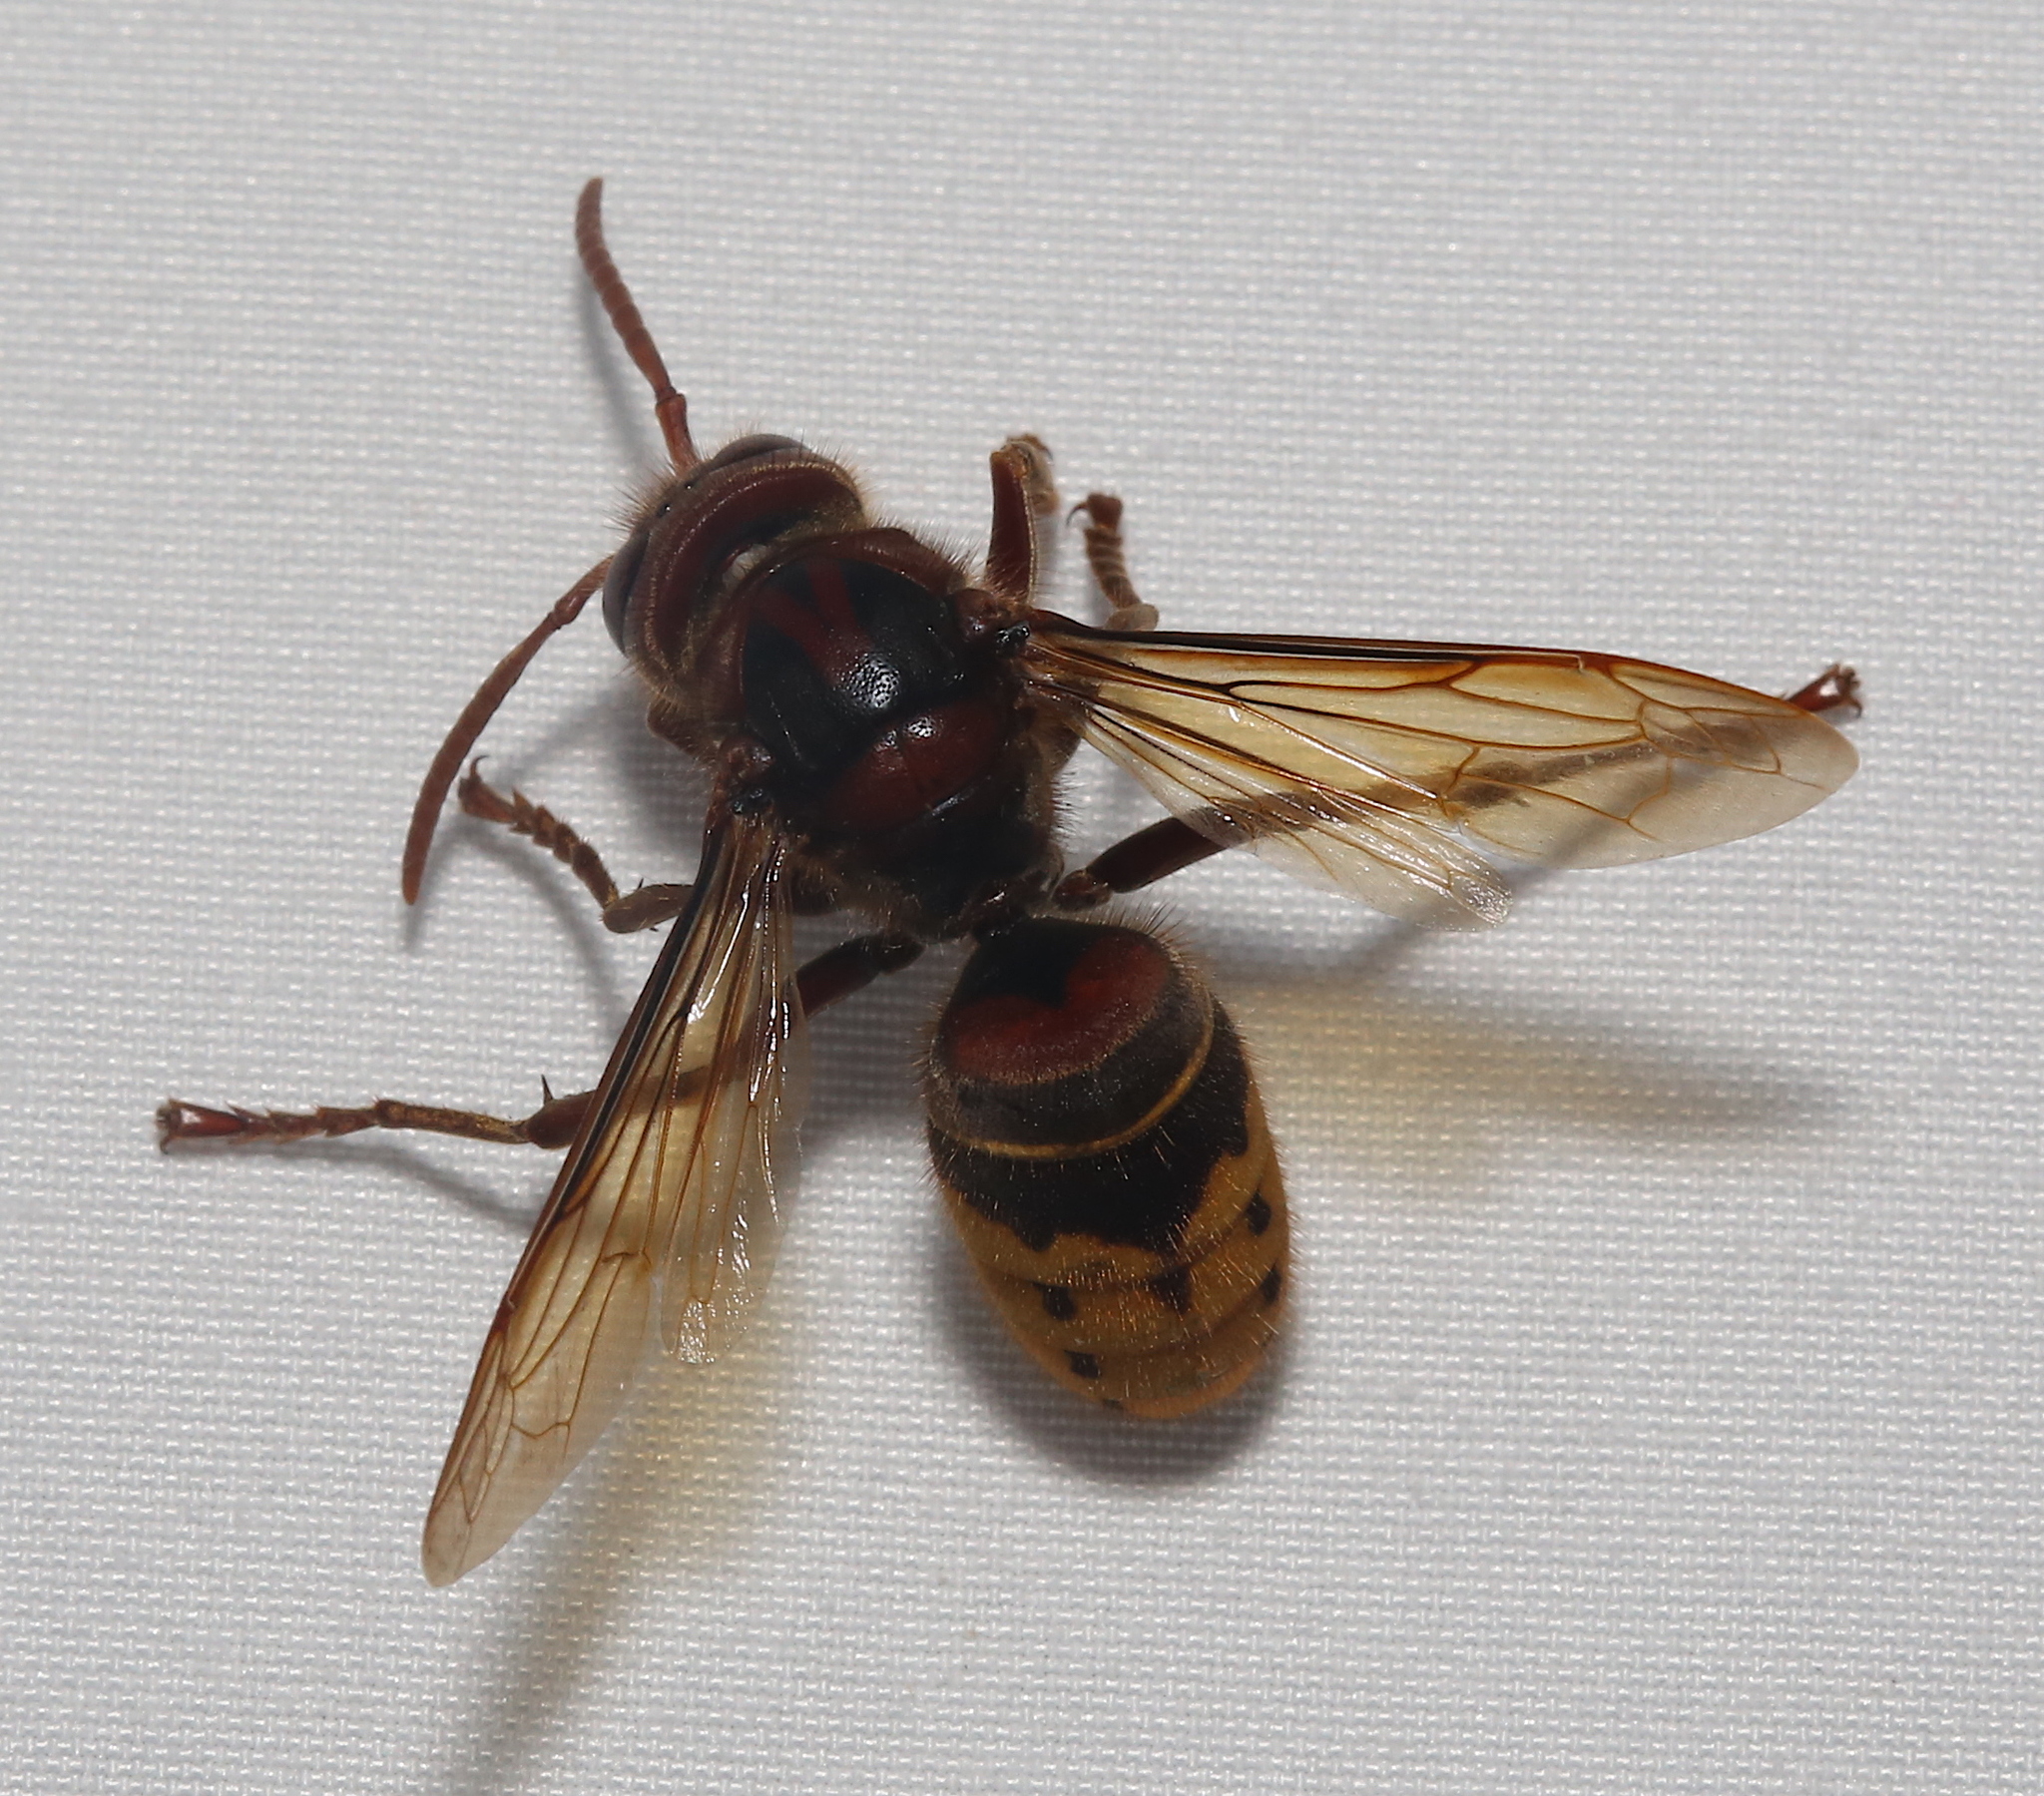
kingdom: Animalia
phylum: Arthropoda
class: Insecta
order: Hymenoptera
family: Vespidae
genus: Vespa
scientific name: Vespa crabro
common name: Hornet
